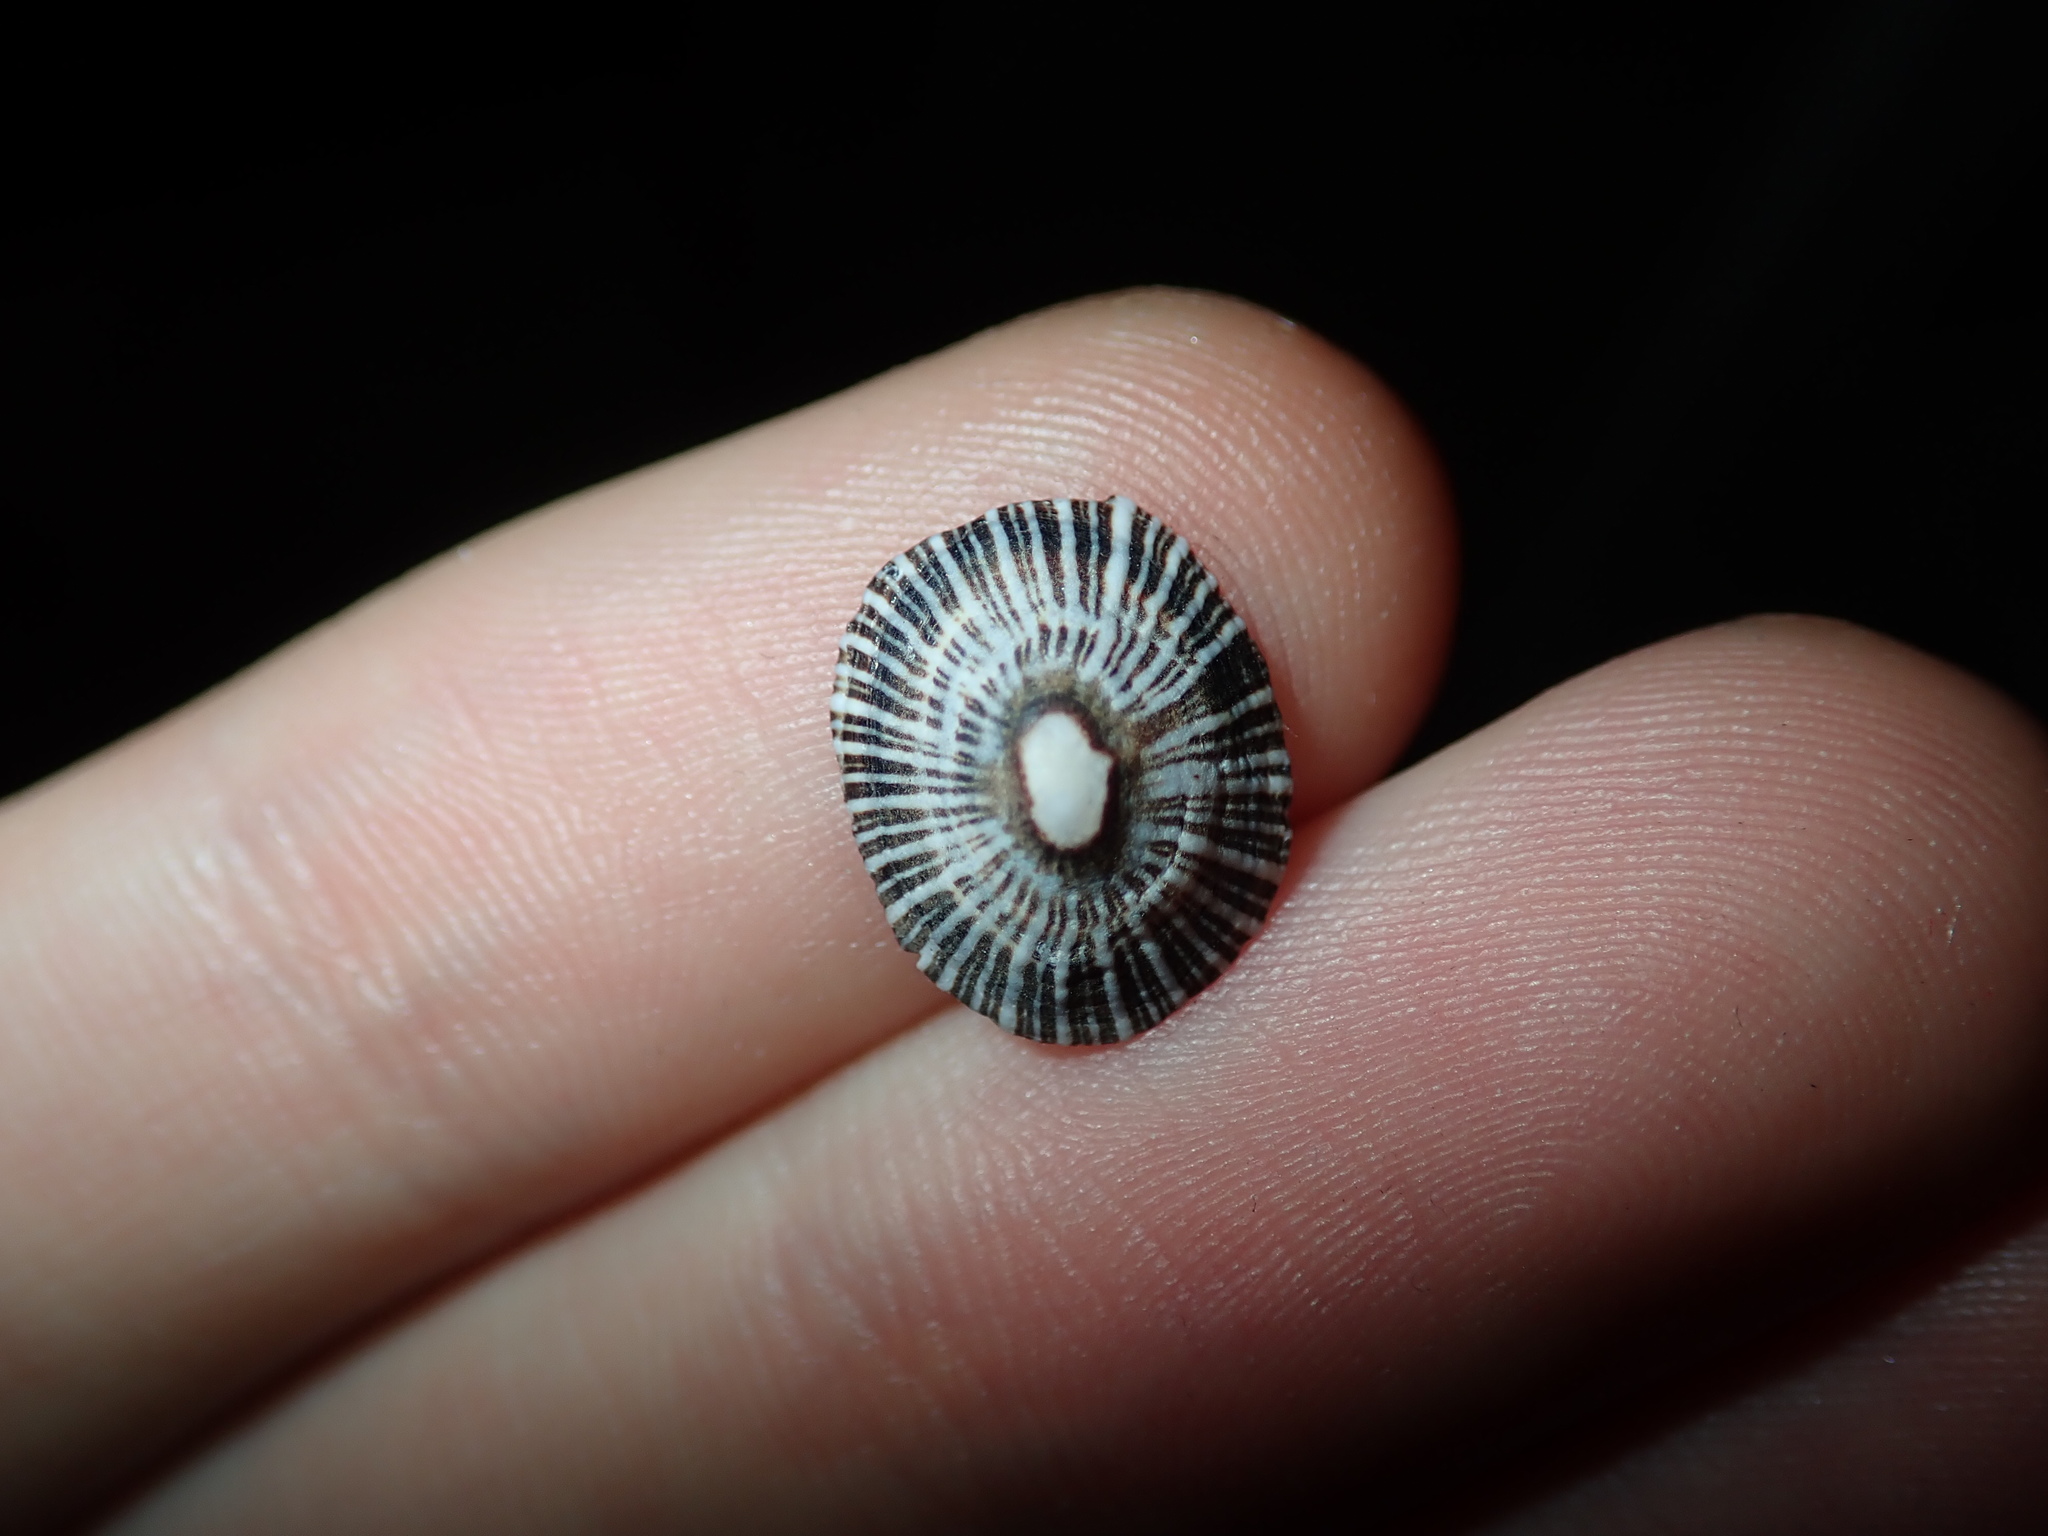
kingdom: Animalia
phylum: Mollusca
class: Gastropoda
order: Siphonariida
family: Siphonariidae
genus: Siphonaria
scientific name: Siphonaria funiculata
